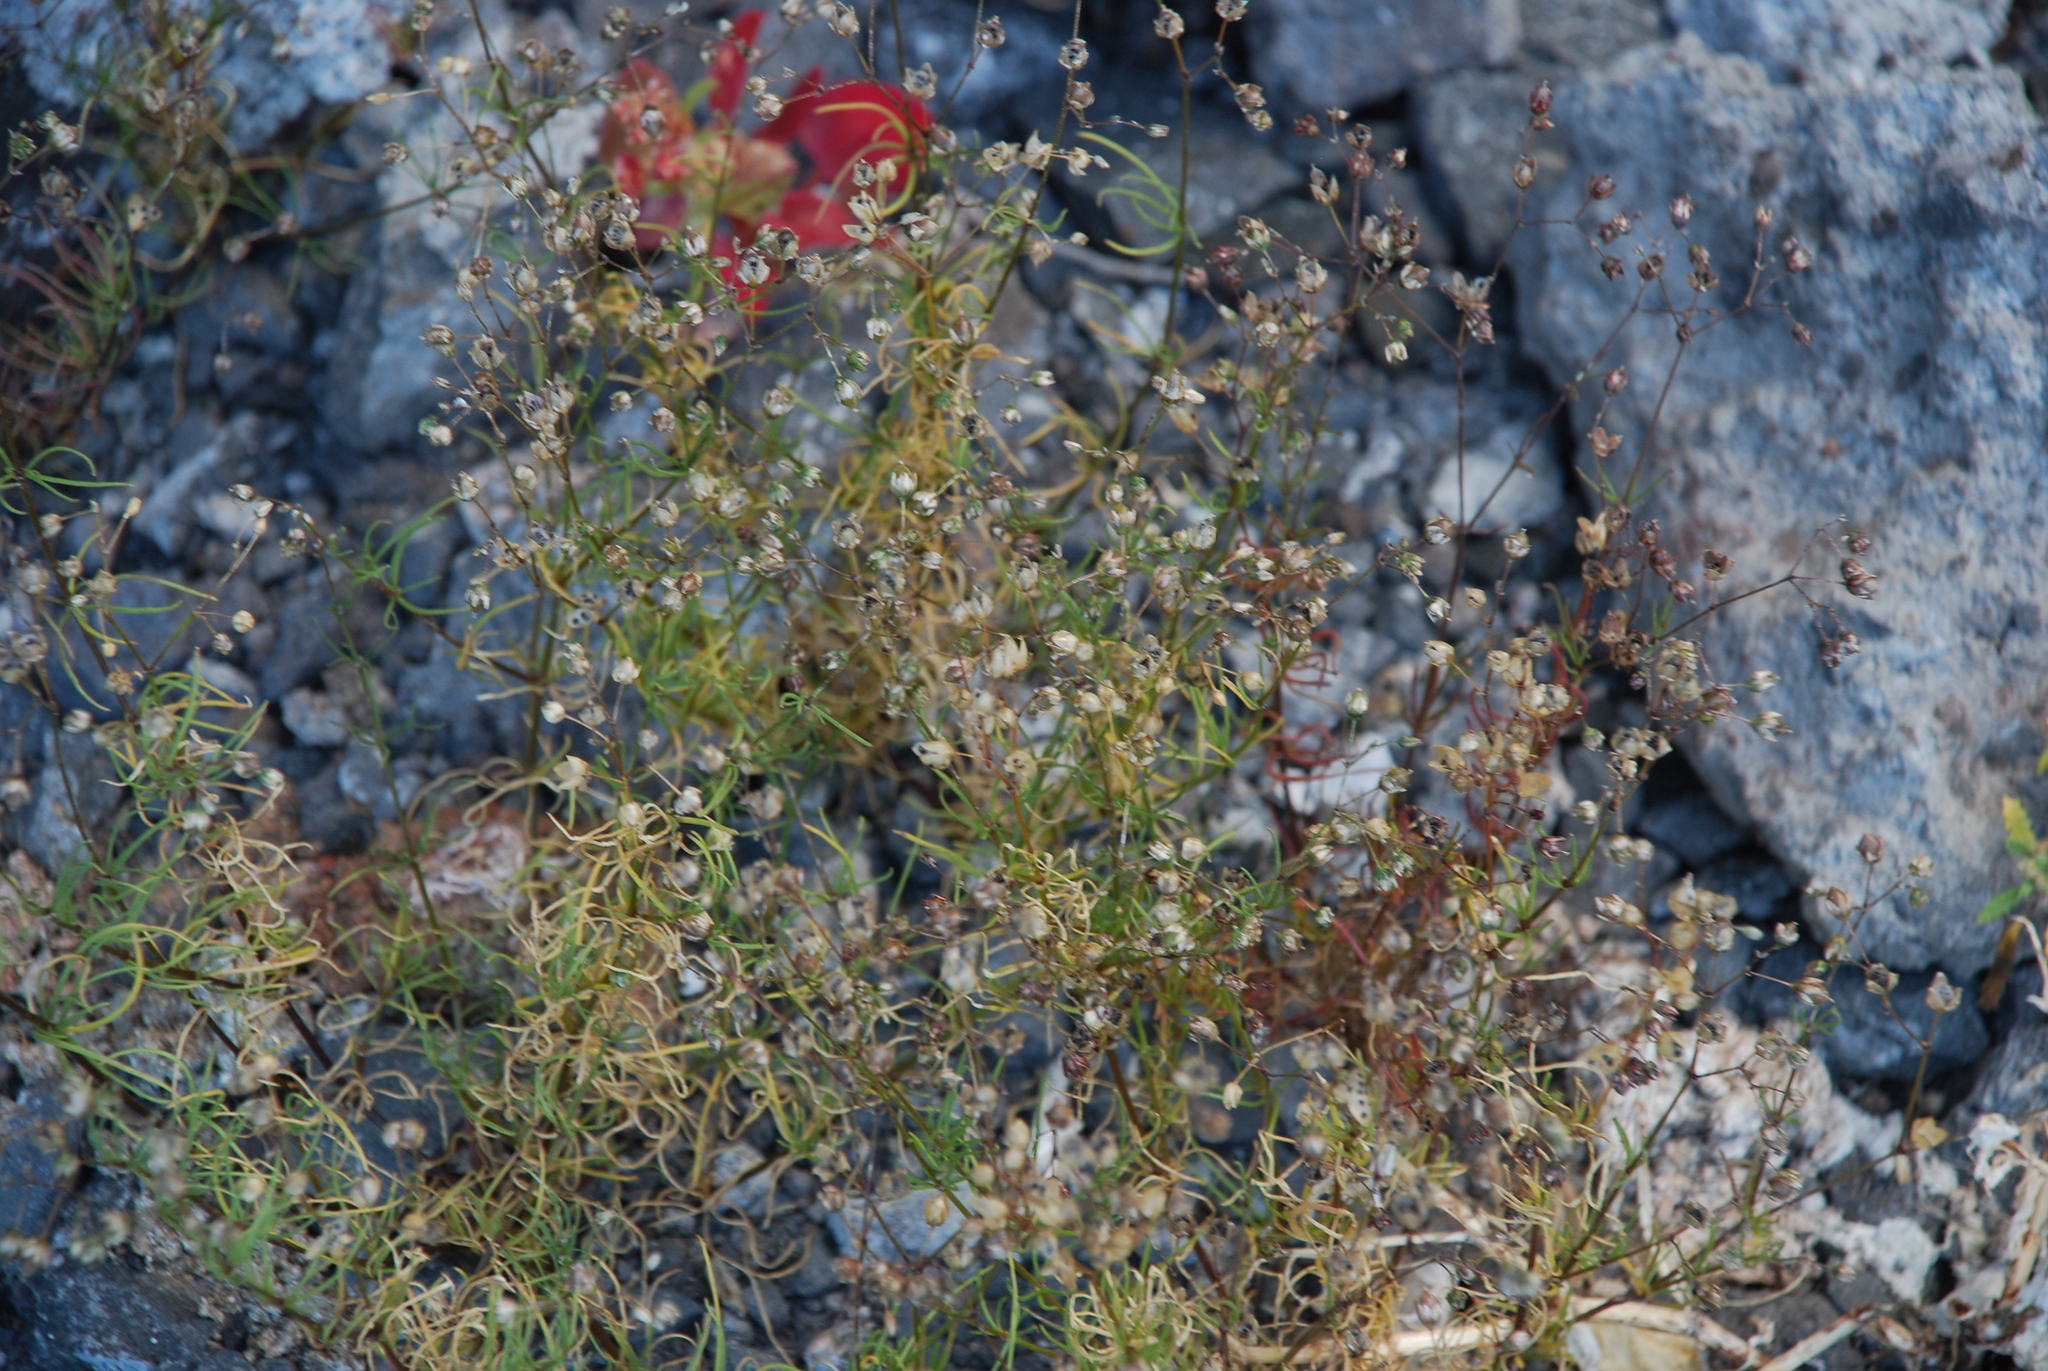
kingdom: Plantae
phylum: Tracheophyta
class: Magnoliopsida
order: Caryophyllales
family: Caryophyllaceae
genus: Spergula
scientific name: Spergula arvensis
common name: Corn spurrey
